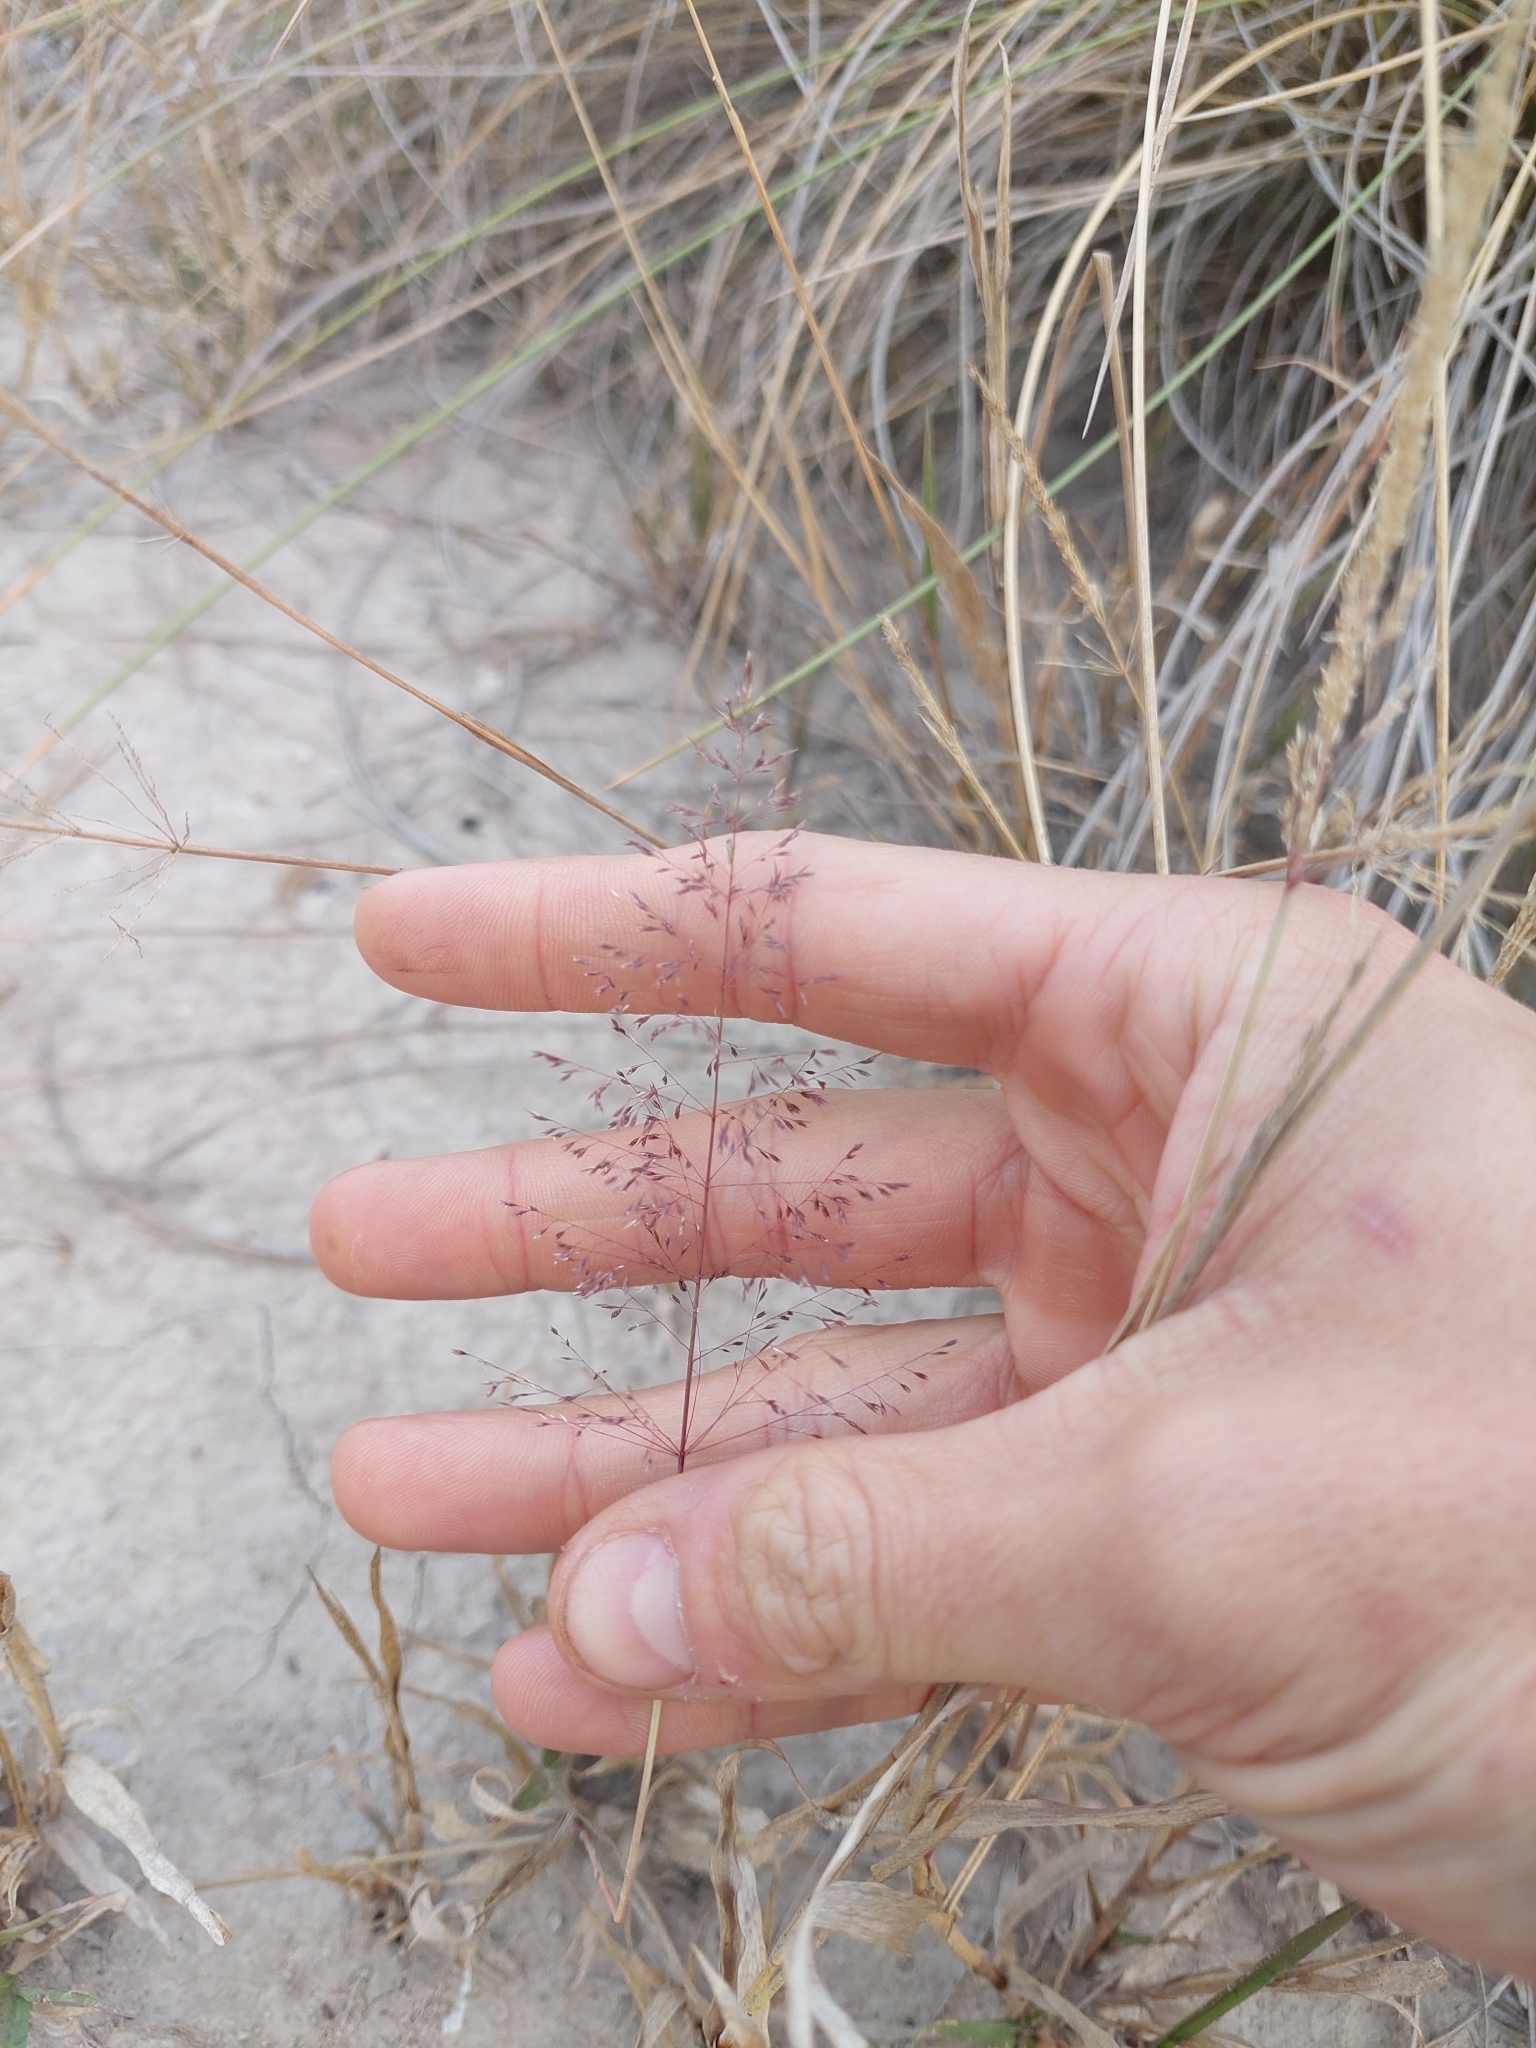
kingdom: Plantae
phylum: Tracheophyta
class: Liliopsida
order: Poales
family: Poaceae
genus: Sporobolus
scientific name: Sporobolus pyramidatus
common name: Whorled dropseed
